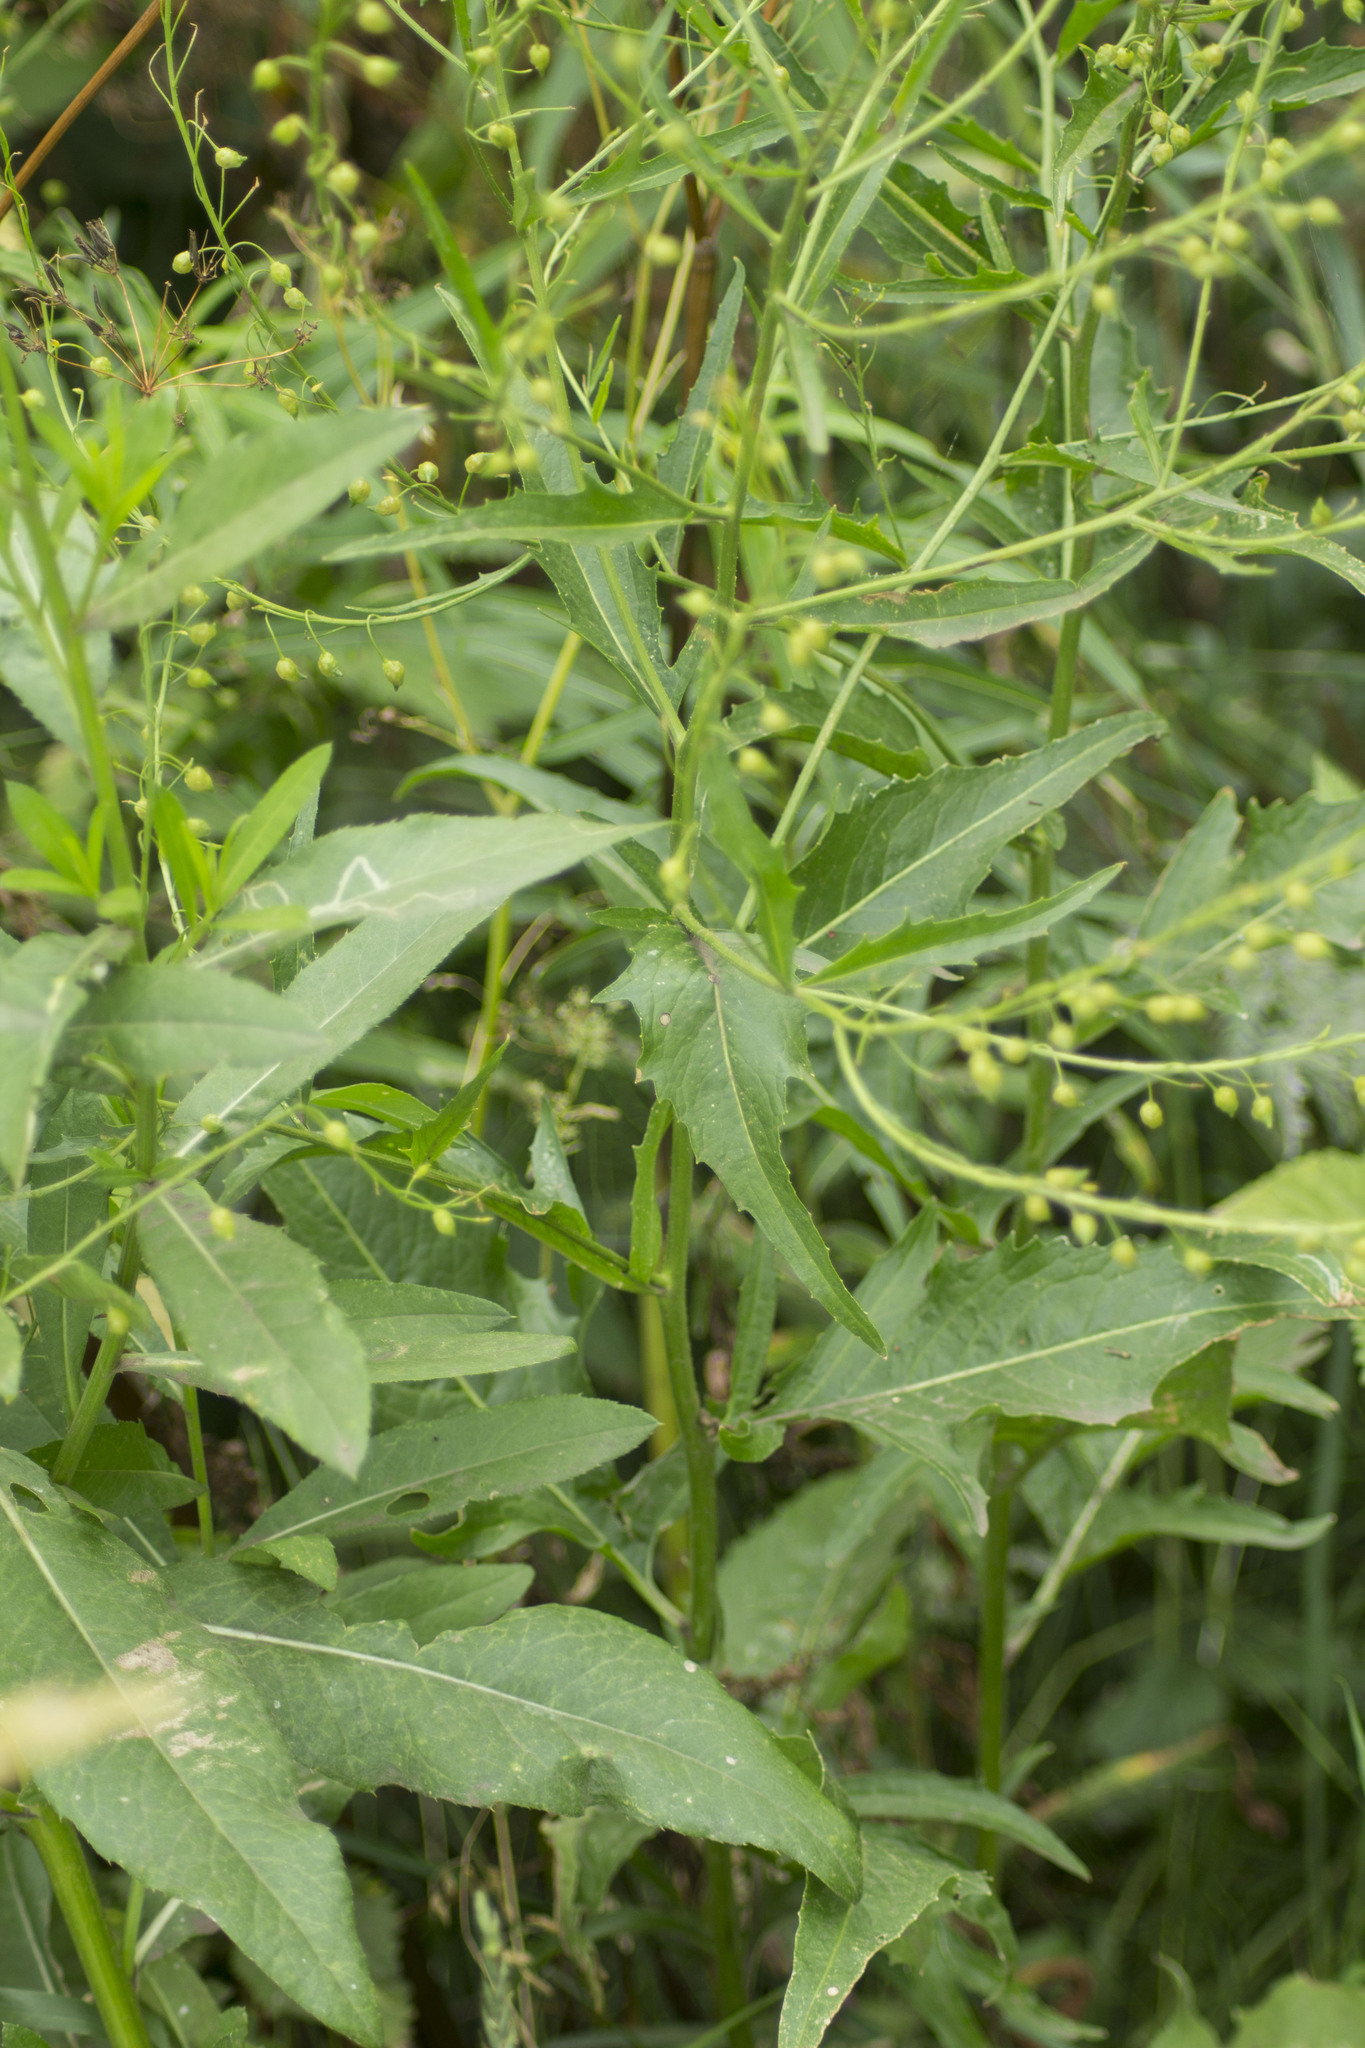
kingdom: Plantae
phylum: Tracheophyta
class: Magnoliopsida
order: Brassicales
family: Brassicaceae
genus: Bunias
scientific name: Bunias orientalis
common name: Warty-cabbage
